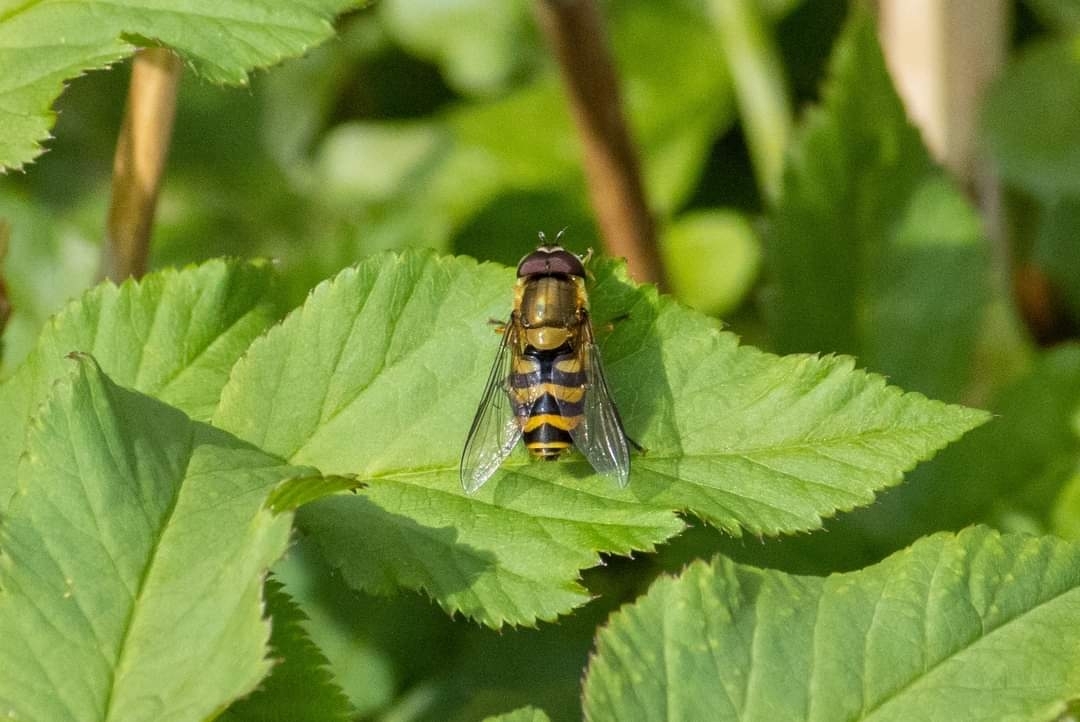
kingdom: Animalia
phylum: Arthropoda
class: Insecta
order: Diptera
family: Syrphidae
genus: Syrphus
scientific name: Syrphus ribesii
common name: Common flower fly
